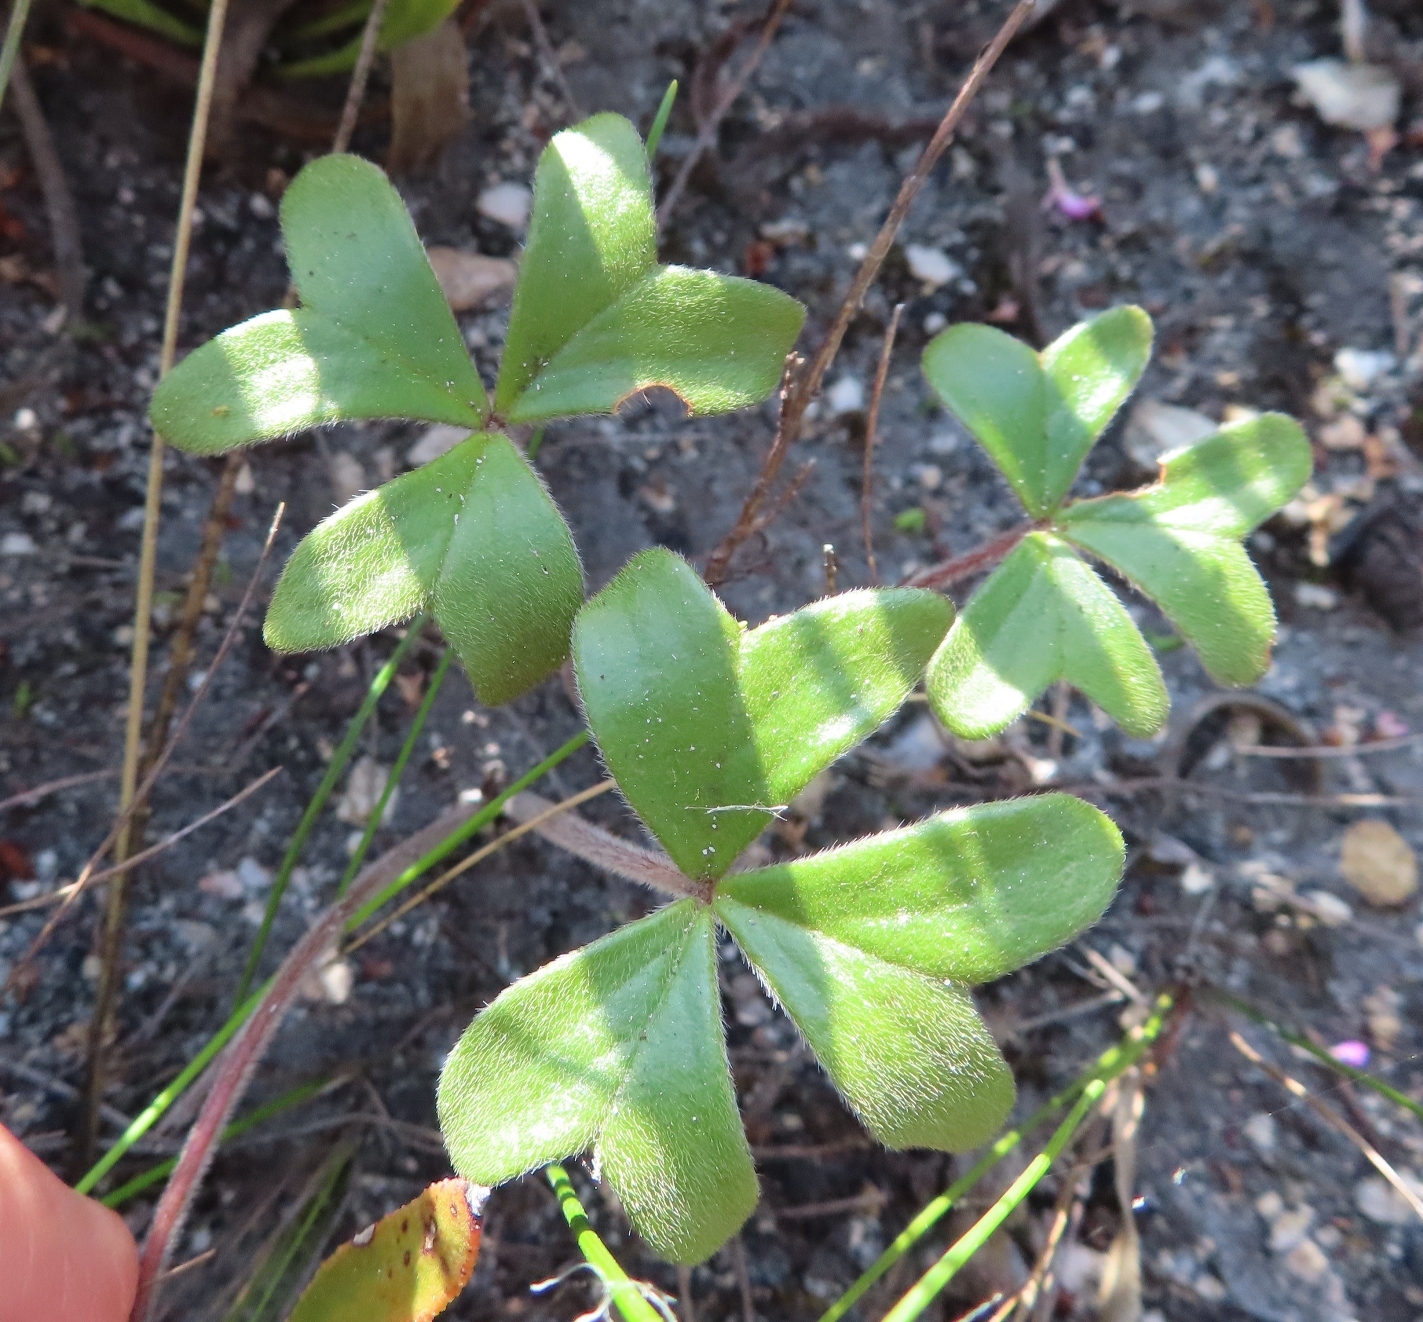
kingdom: Plantae
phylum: Tracheophyta
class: Magnoliopsida
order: Oxalidales
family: Oxalidaceae
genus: Oxalis
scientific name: Oxalis truncatula
